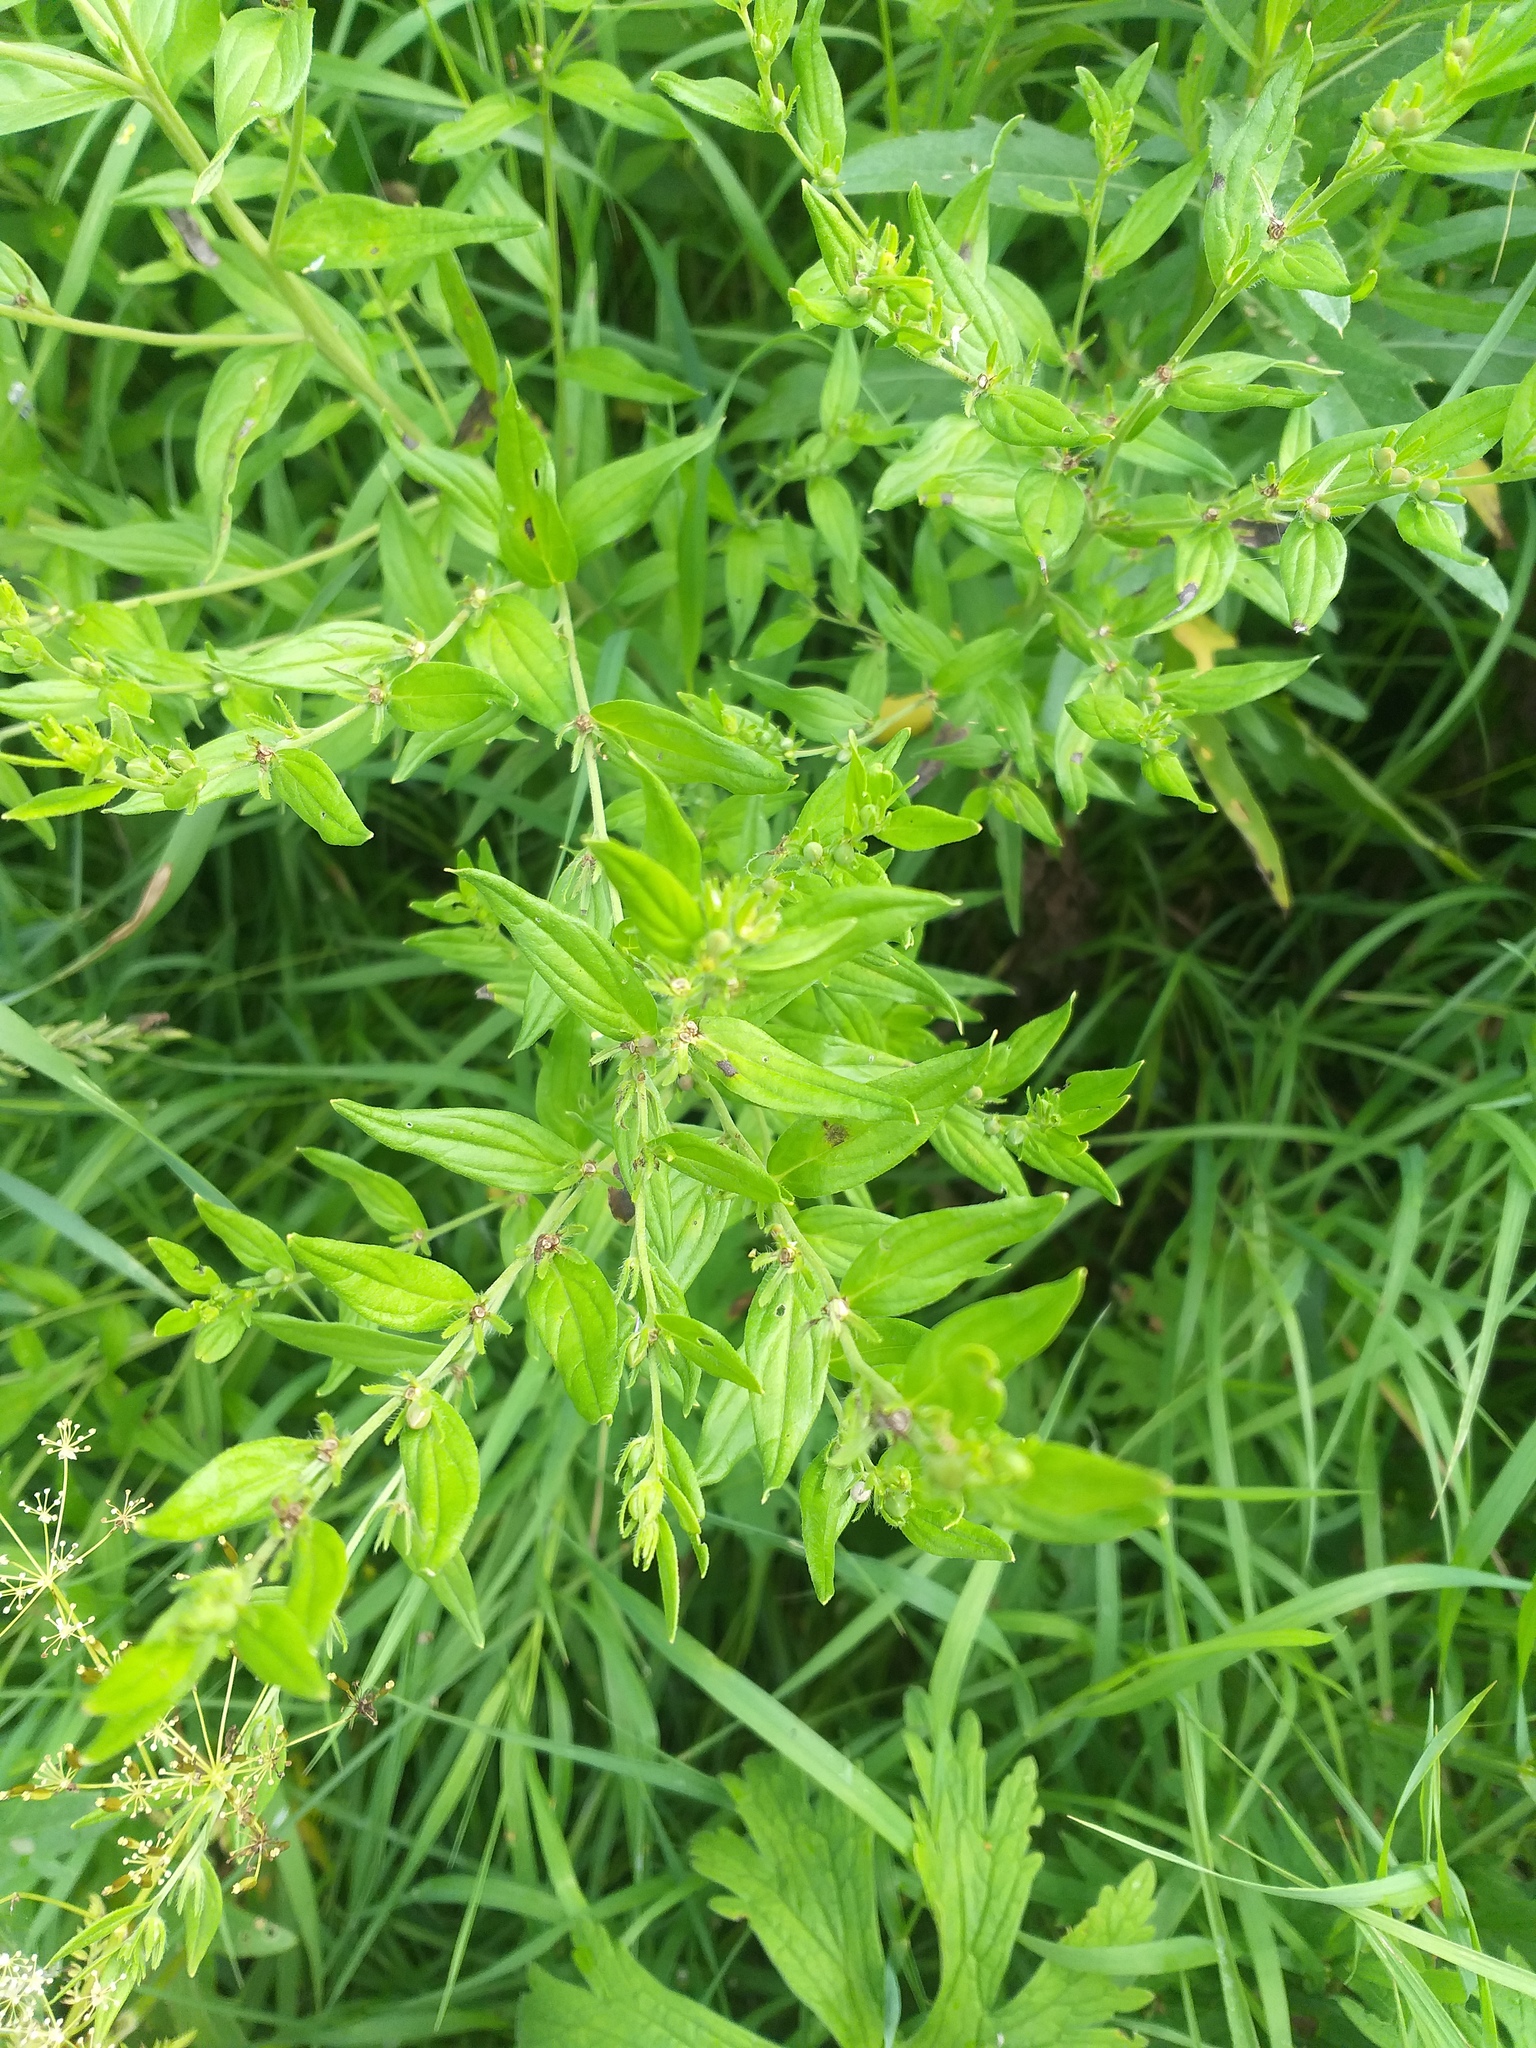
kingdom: Plantae
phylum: Tracheophyta
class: Magnoliopsida
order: Boraginales
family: Boraginaceae
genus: Lithospermum
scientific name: Lithospermum officinale
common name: Common gromwell
